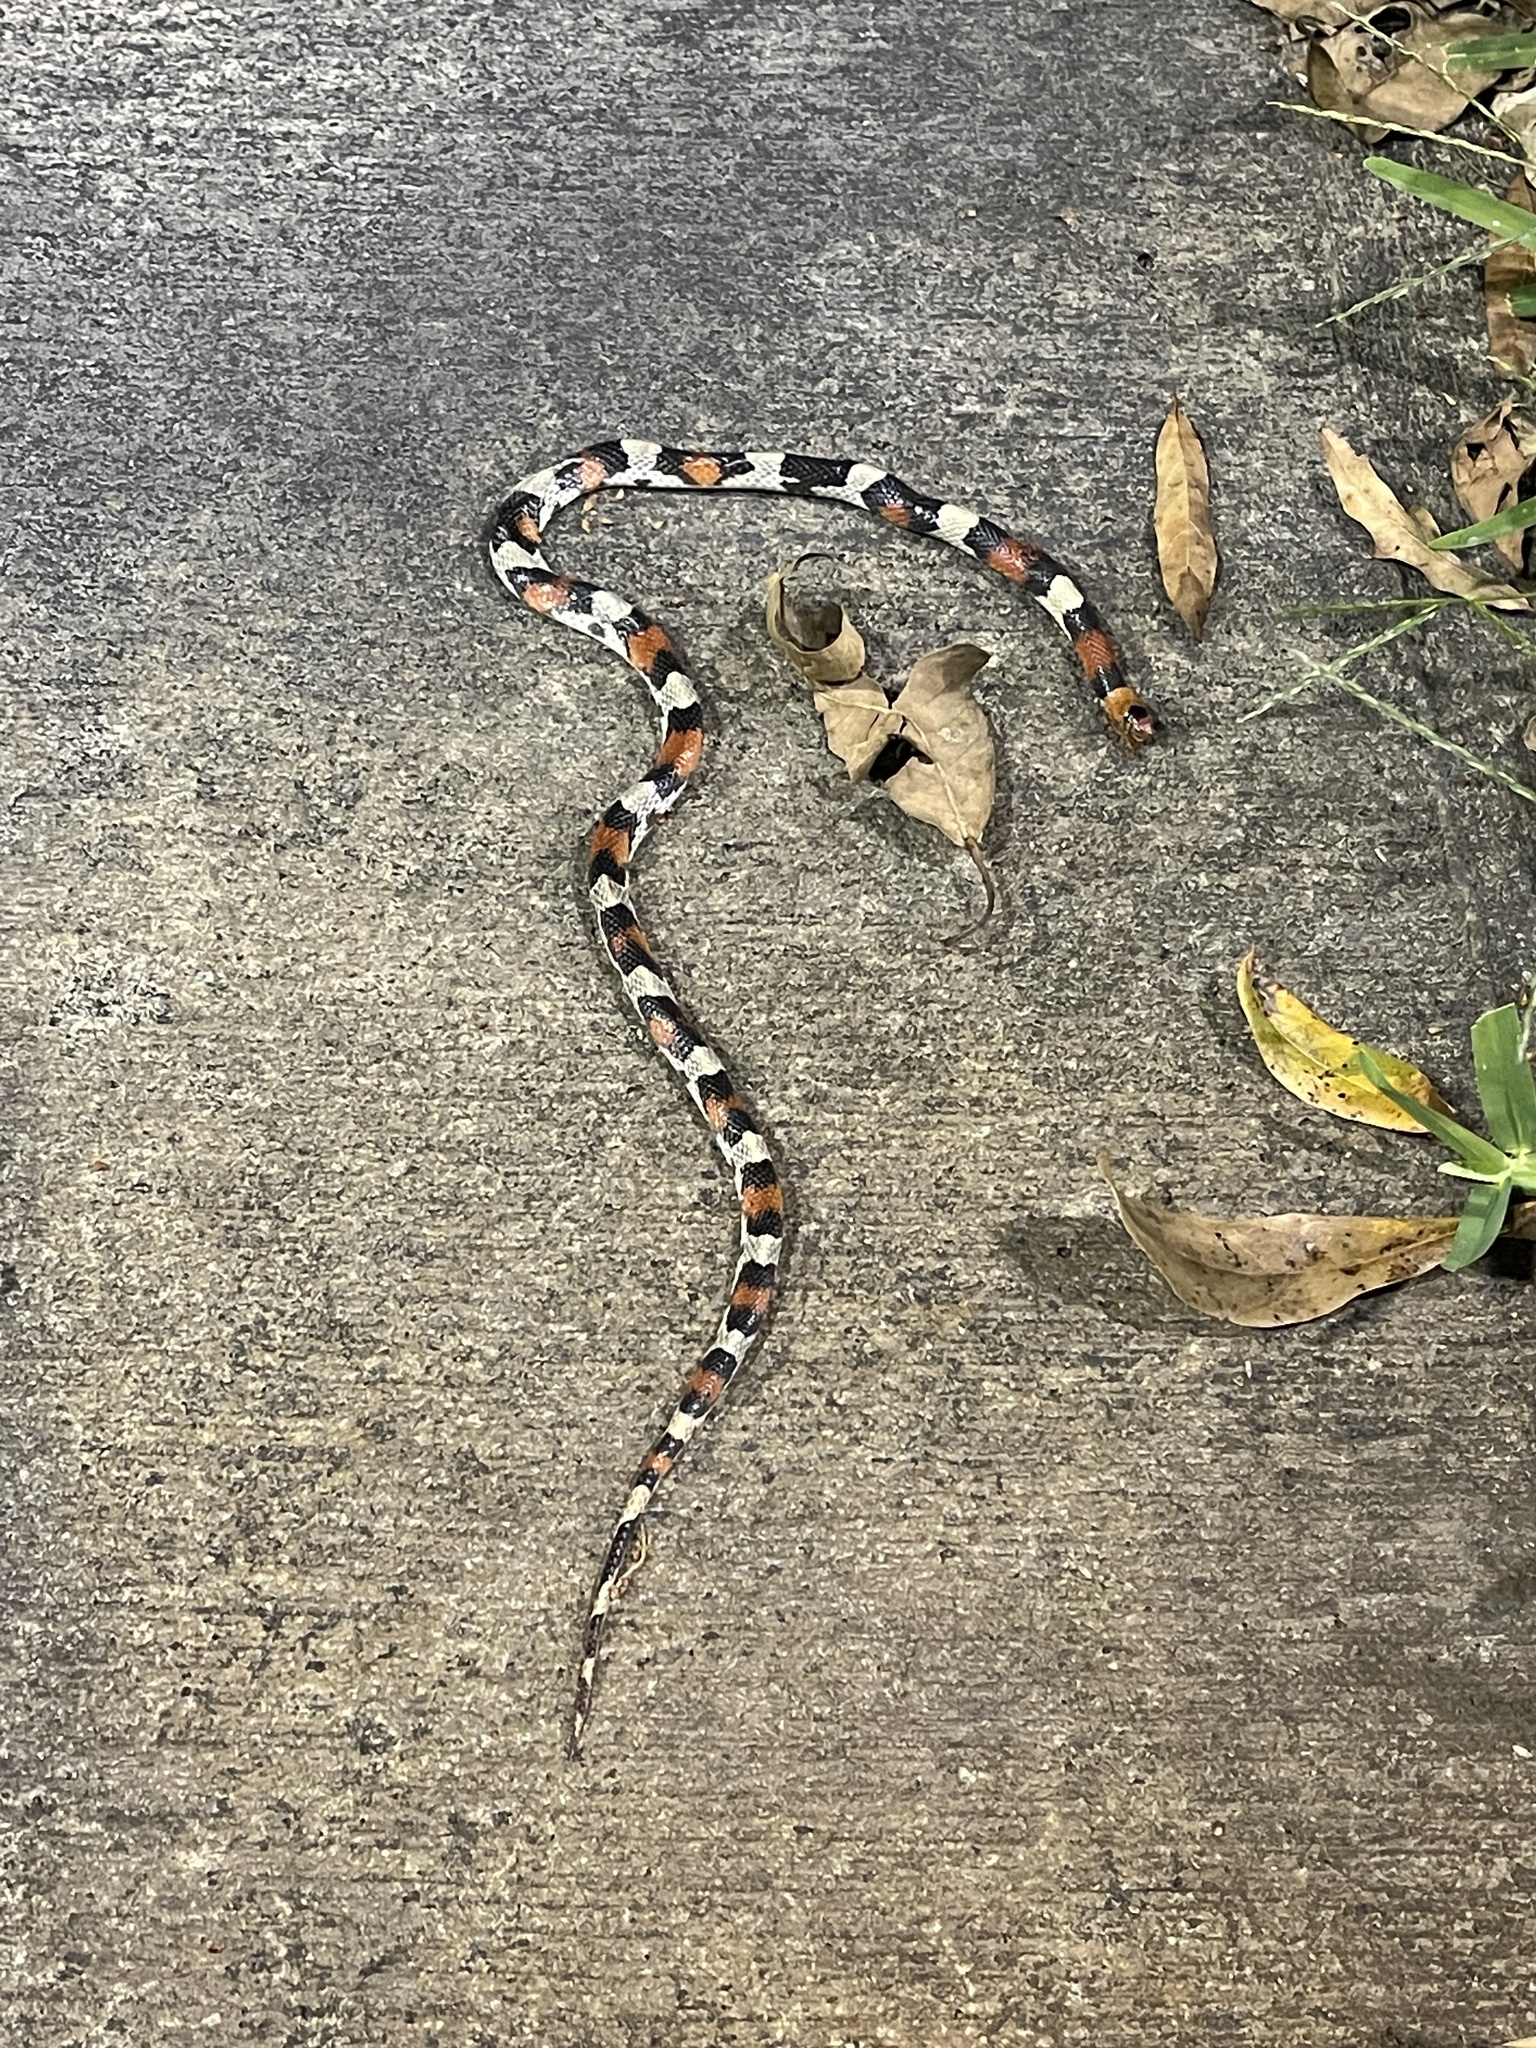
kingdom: Animalia
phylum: Chordata
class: Squamata
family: Colubridae
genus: Cemophora
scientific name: Cemophora coccinea
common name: Scarlet snake
